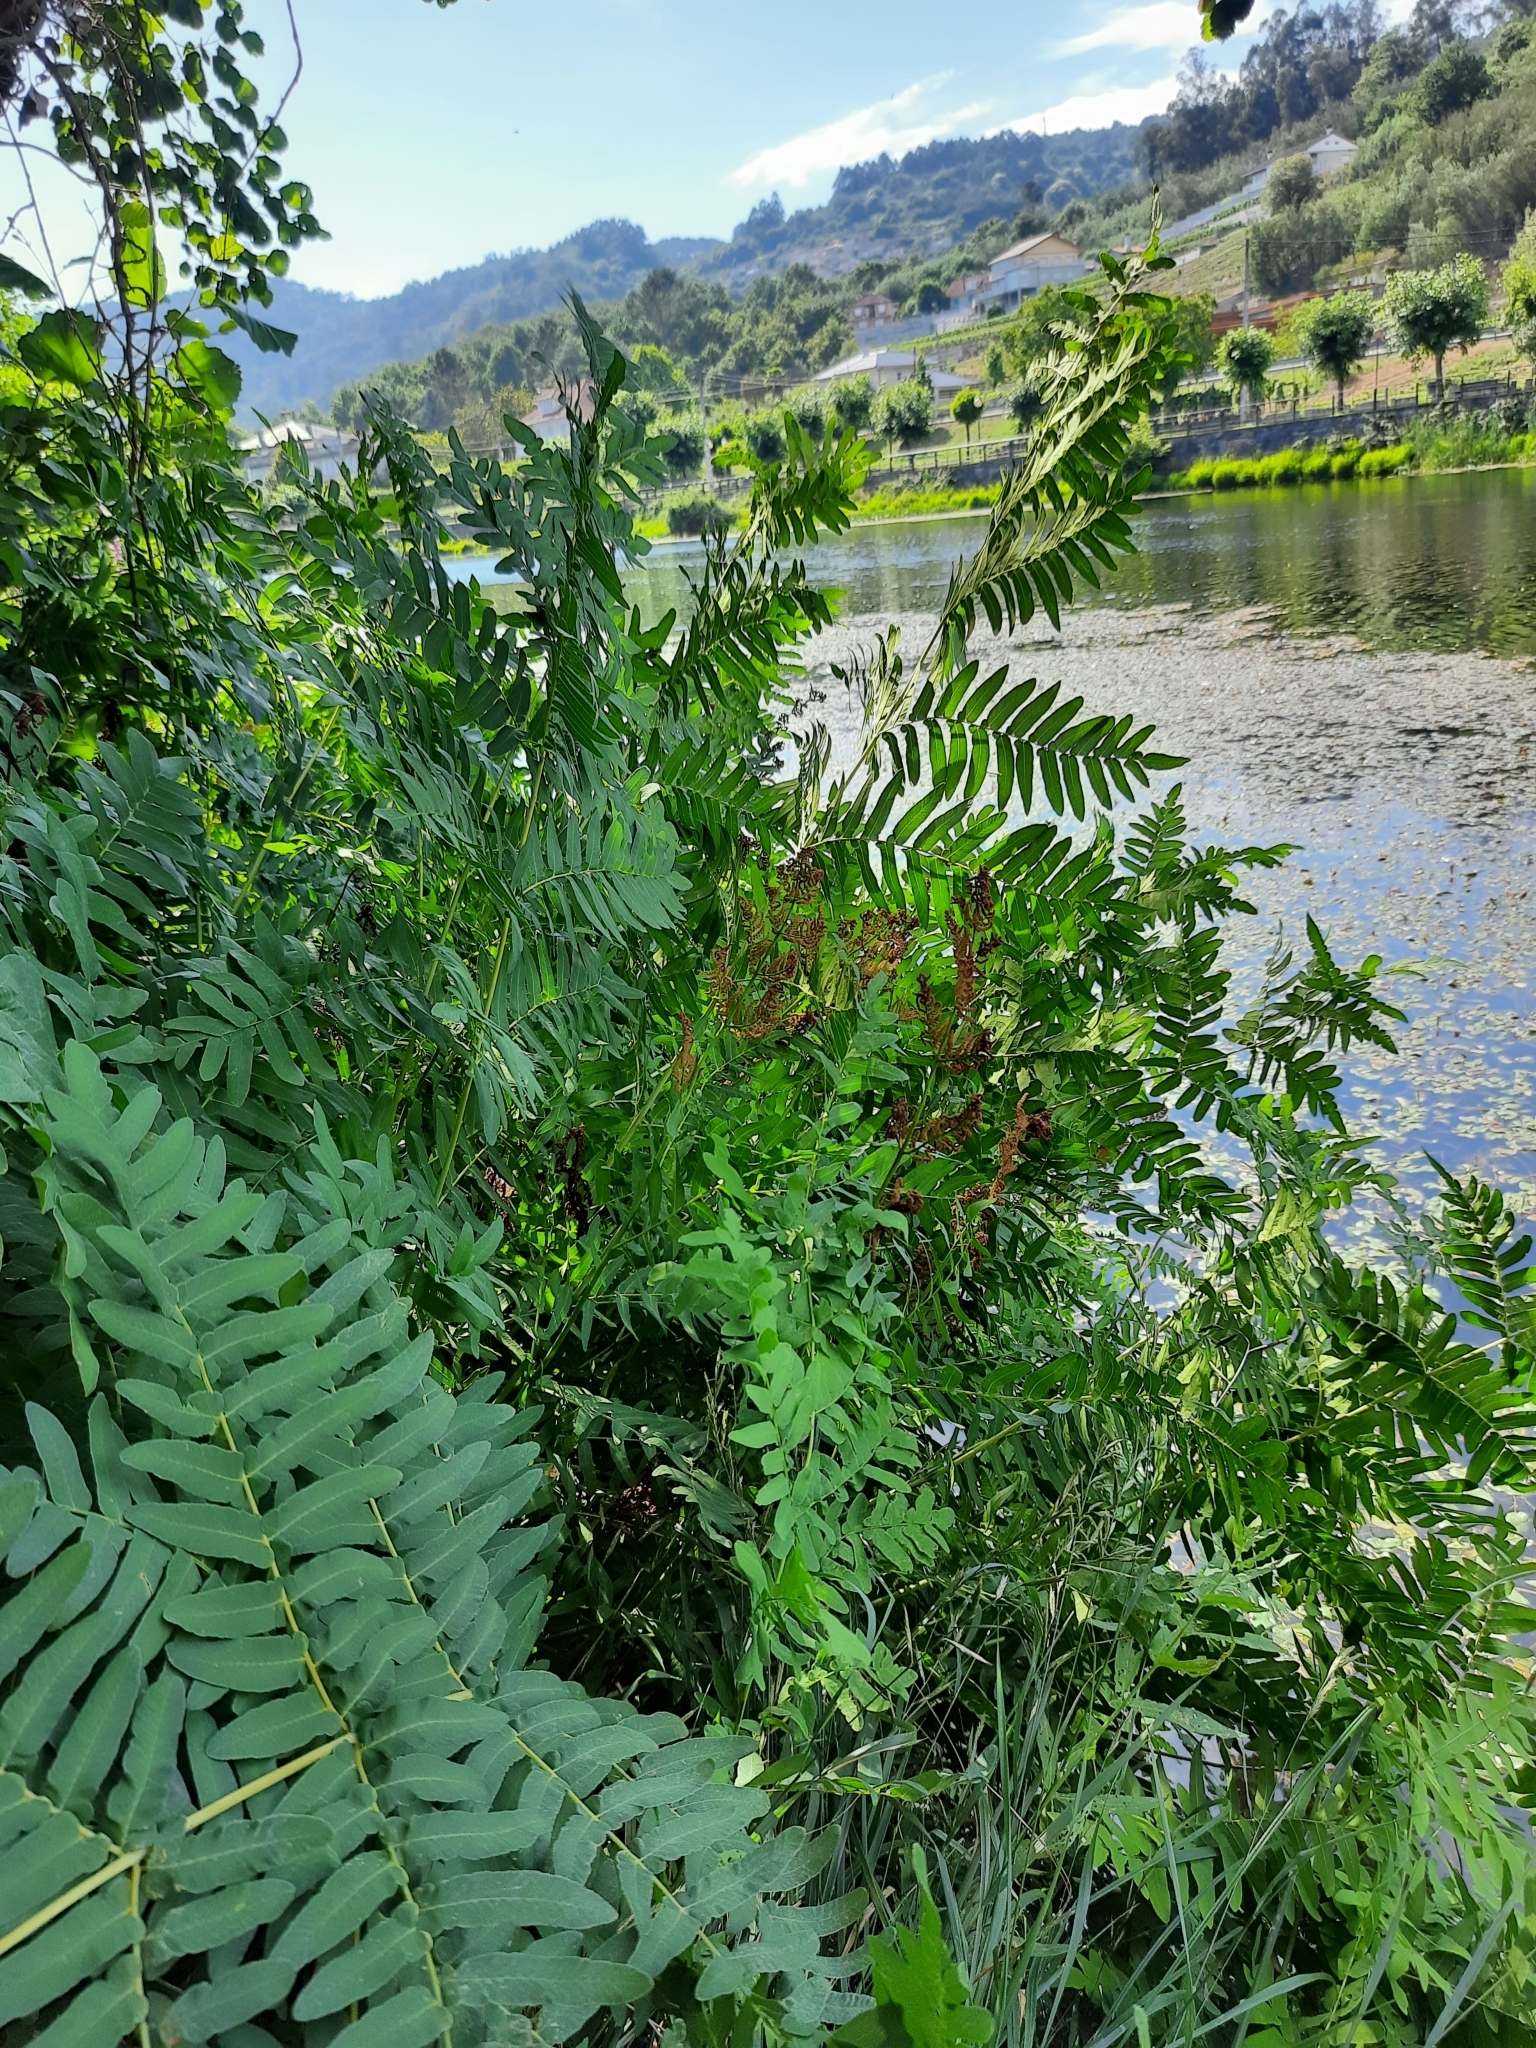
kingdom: Plantae
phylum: Tracheophyta
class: Polypodiopsida
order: Osmundales
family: Osmundaceae
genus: Osmunda
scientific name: Osmunda regalis
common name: Royal fern
